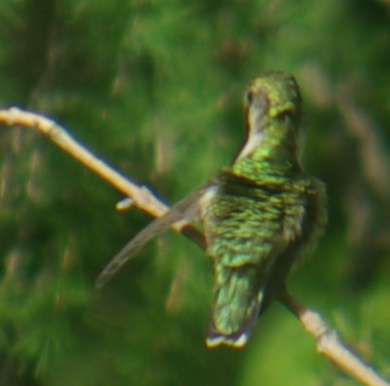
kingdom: Animalia
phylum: Chordata
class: Aves
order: Apodiformes
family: Trochilidae
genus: Archilochus
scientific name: Archilochus colubris
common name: Ruby-throated hummingbird
